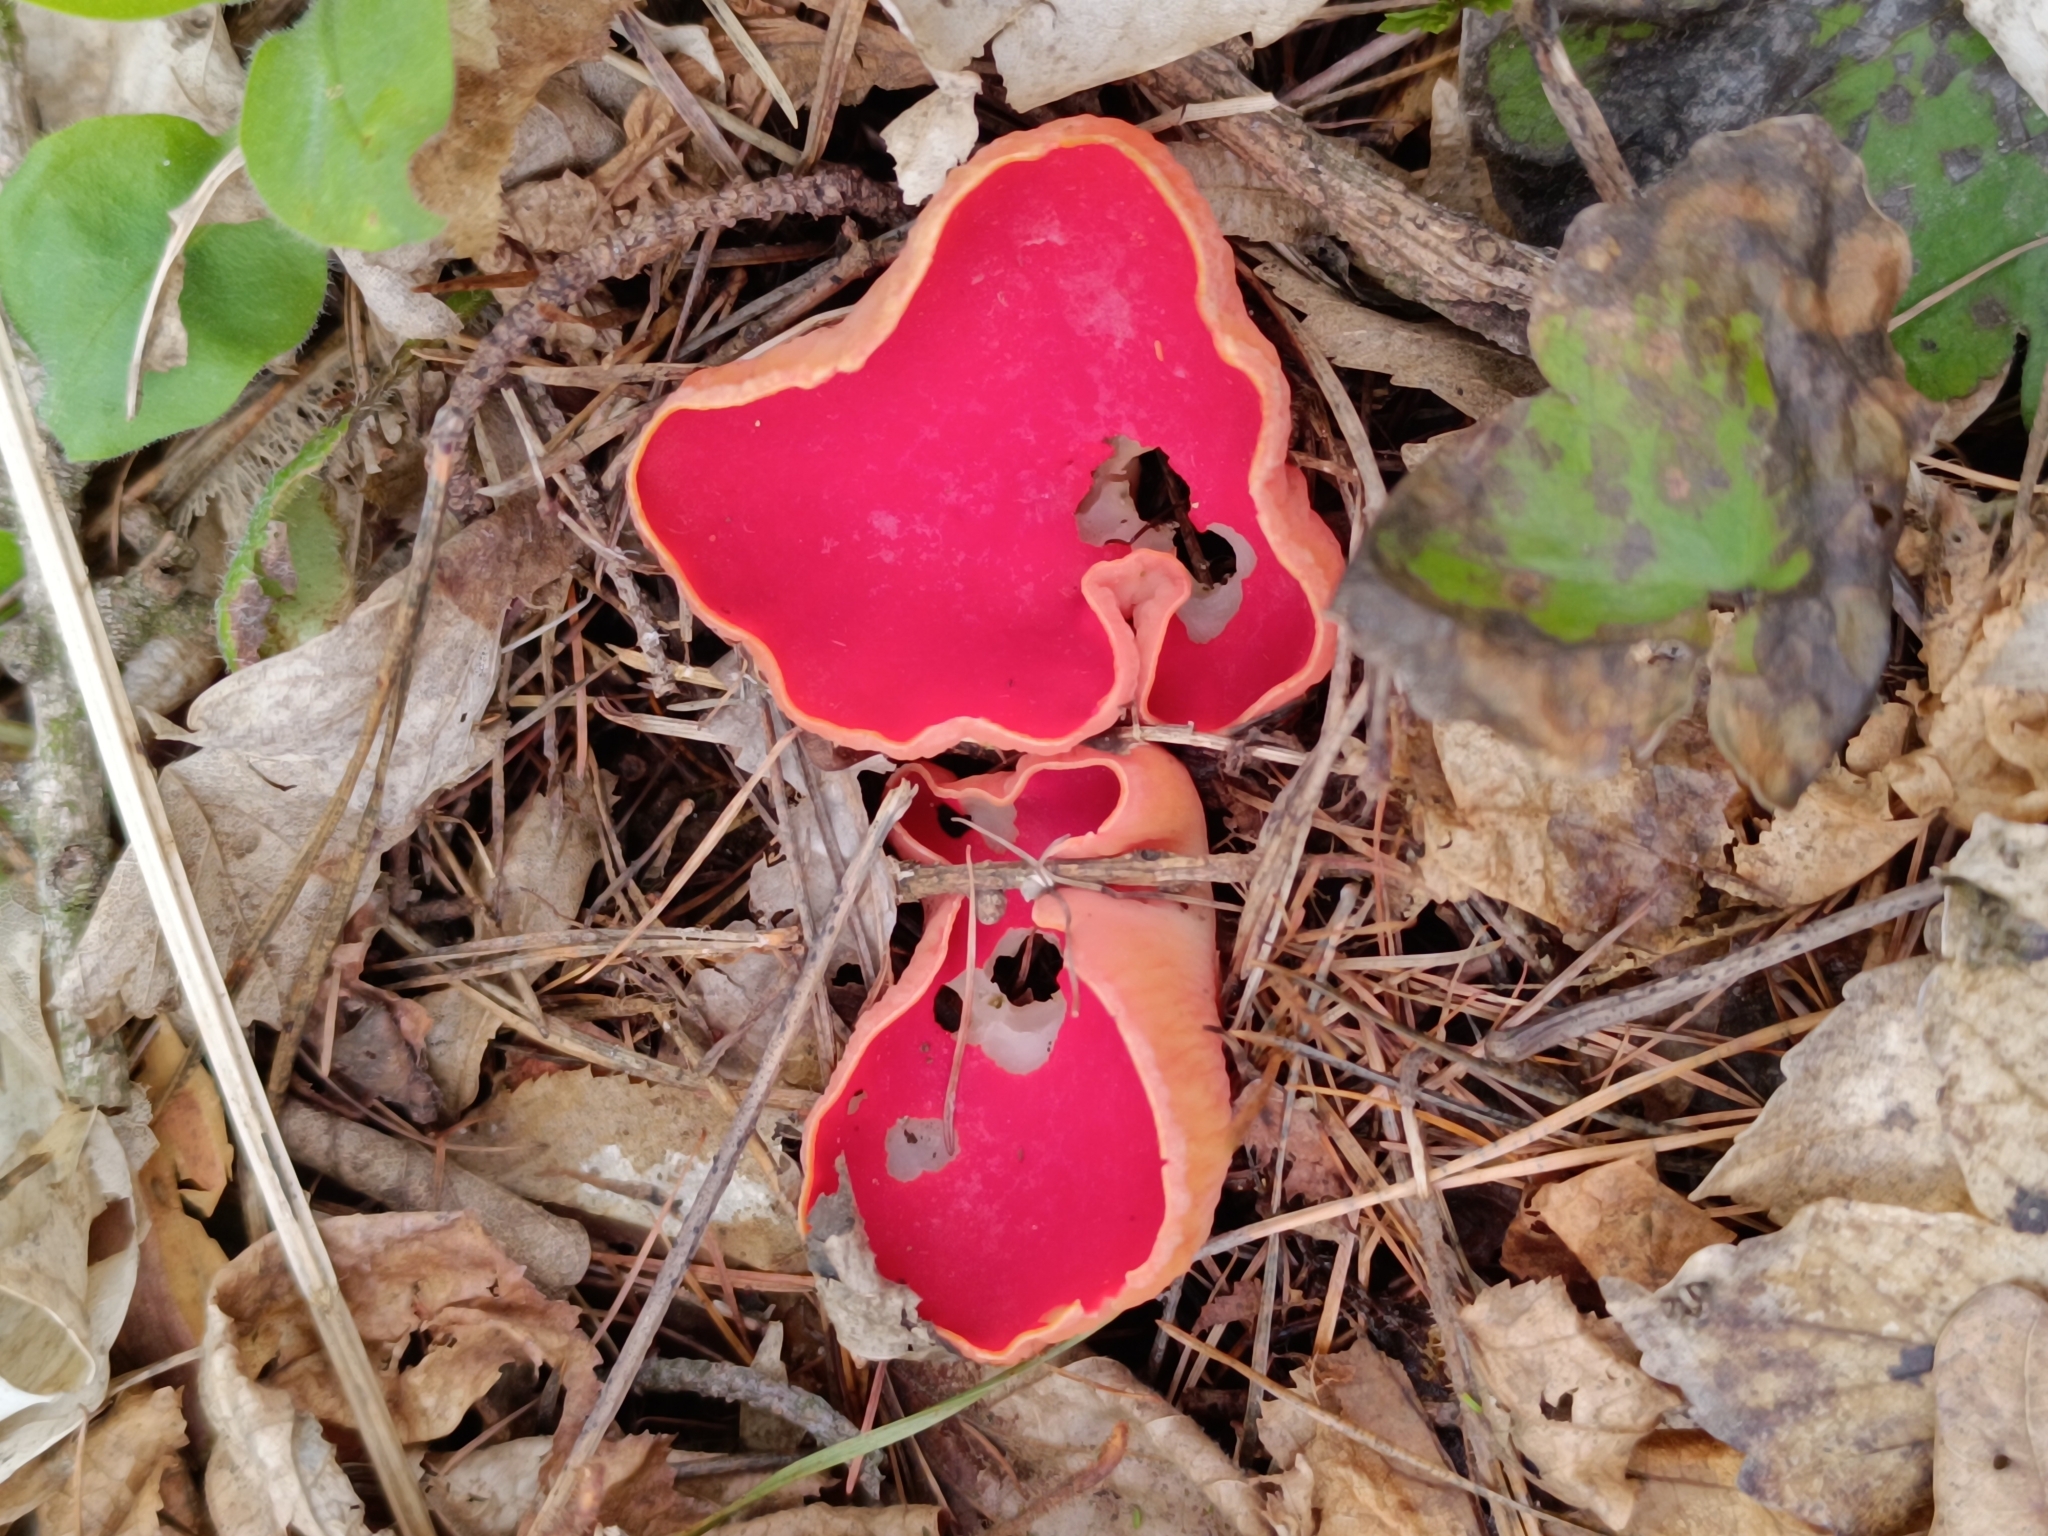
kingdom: Fungi
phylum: Ascomycota
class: Pezizomycetes
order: Pezizales
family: Sarcoscyphaceae
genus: Sarcoscypha
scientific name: Sarcoscypha
